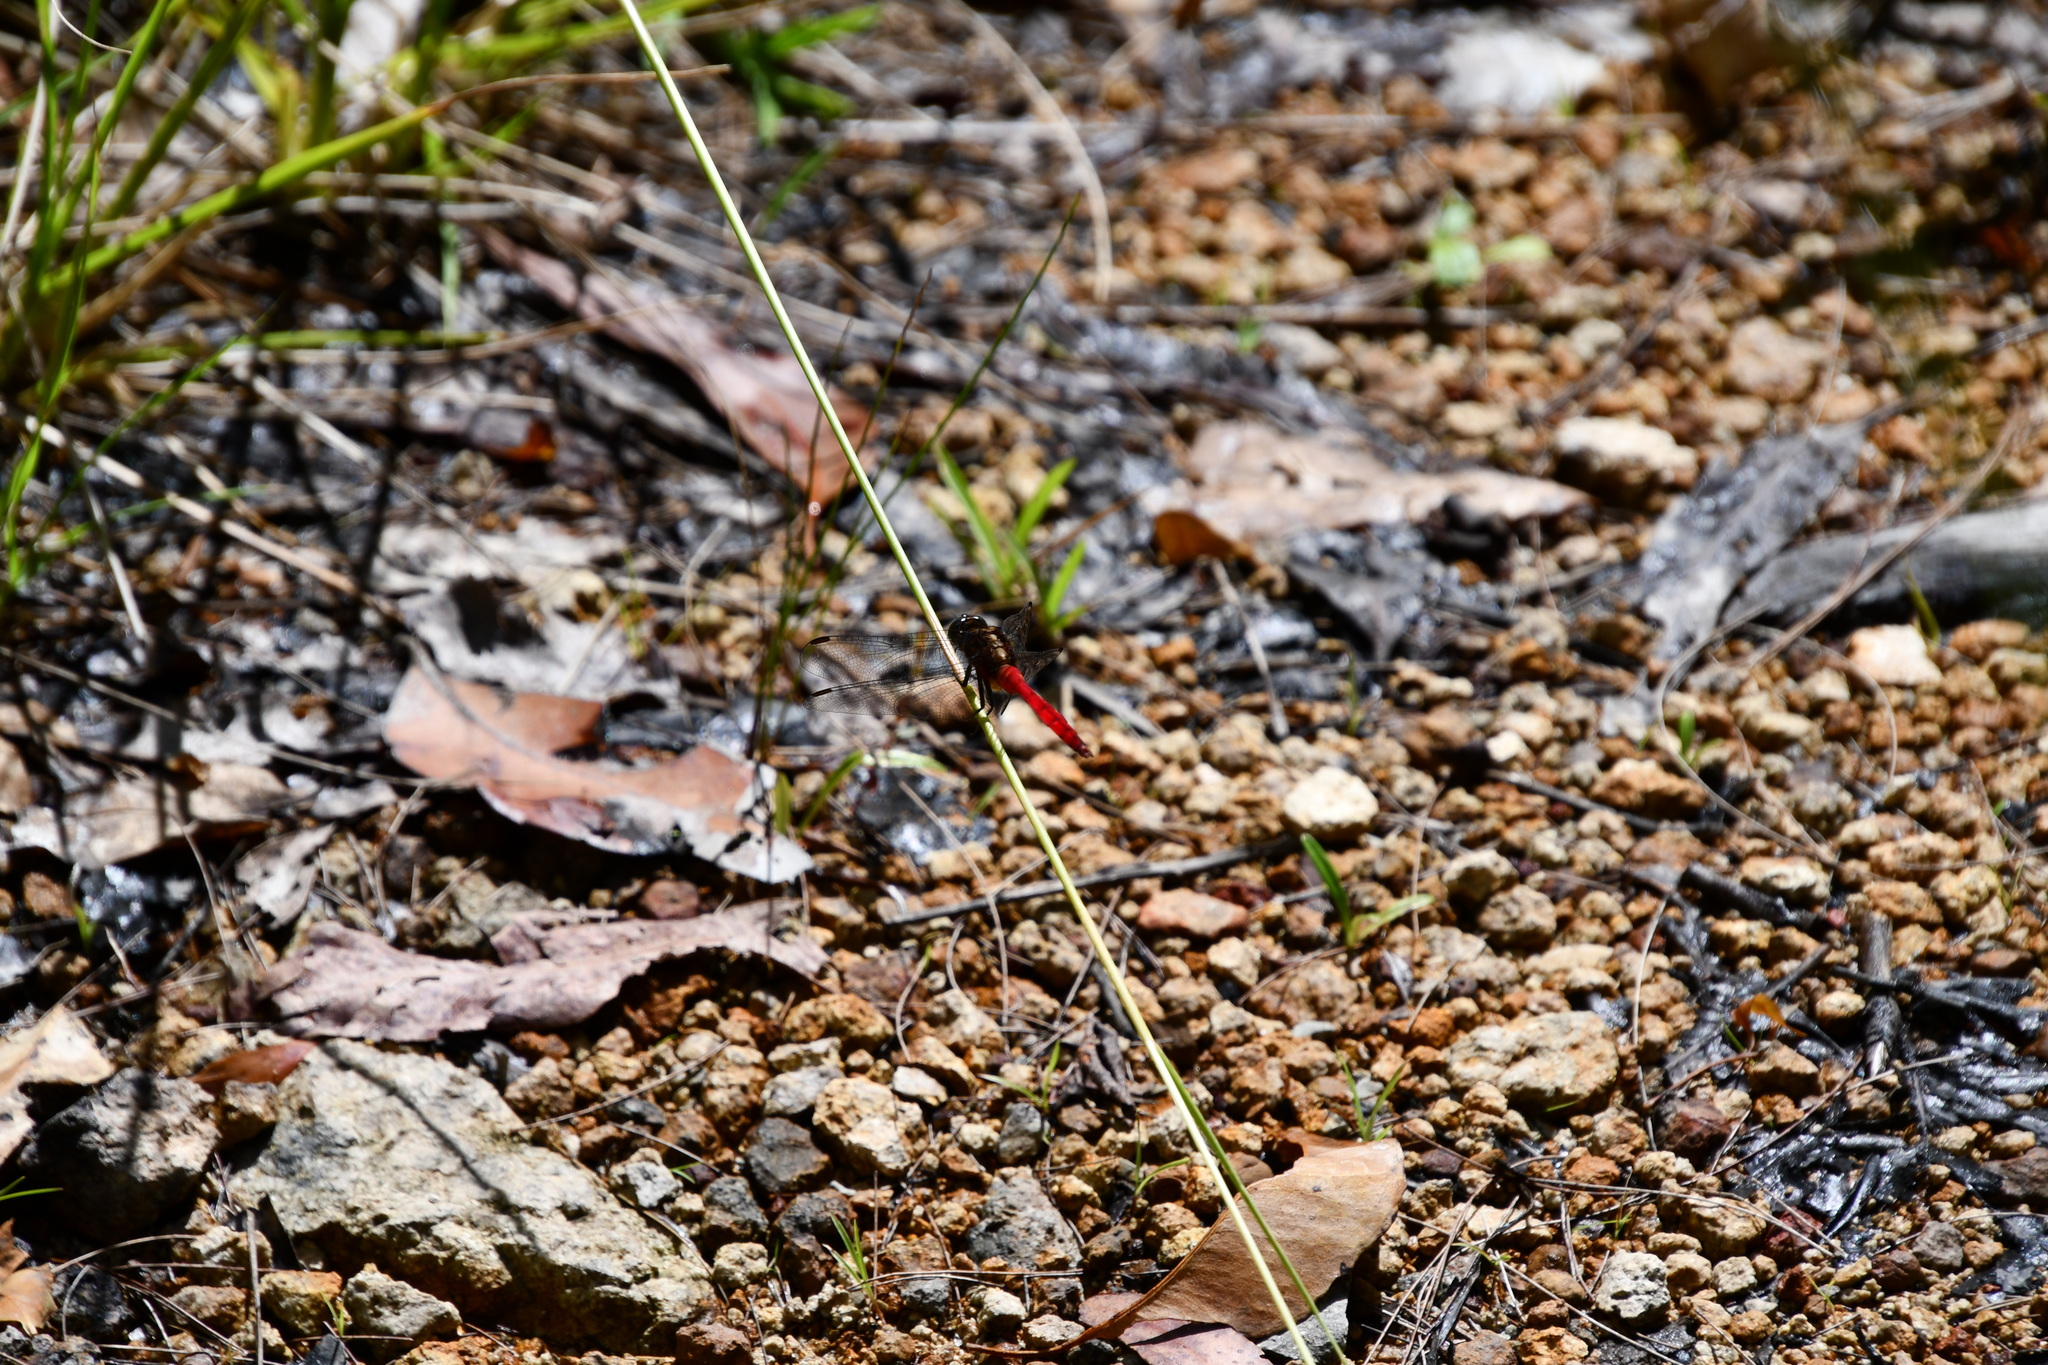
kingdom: Animalia
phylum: Arthropoda
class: Insecta
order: Odonata
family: Libellulidae
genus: Orthetrum
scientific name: Orthetrum villosovittatum
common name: Firery skimmer
